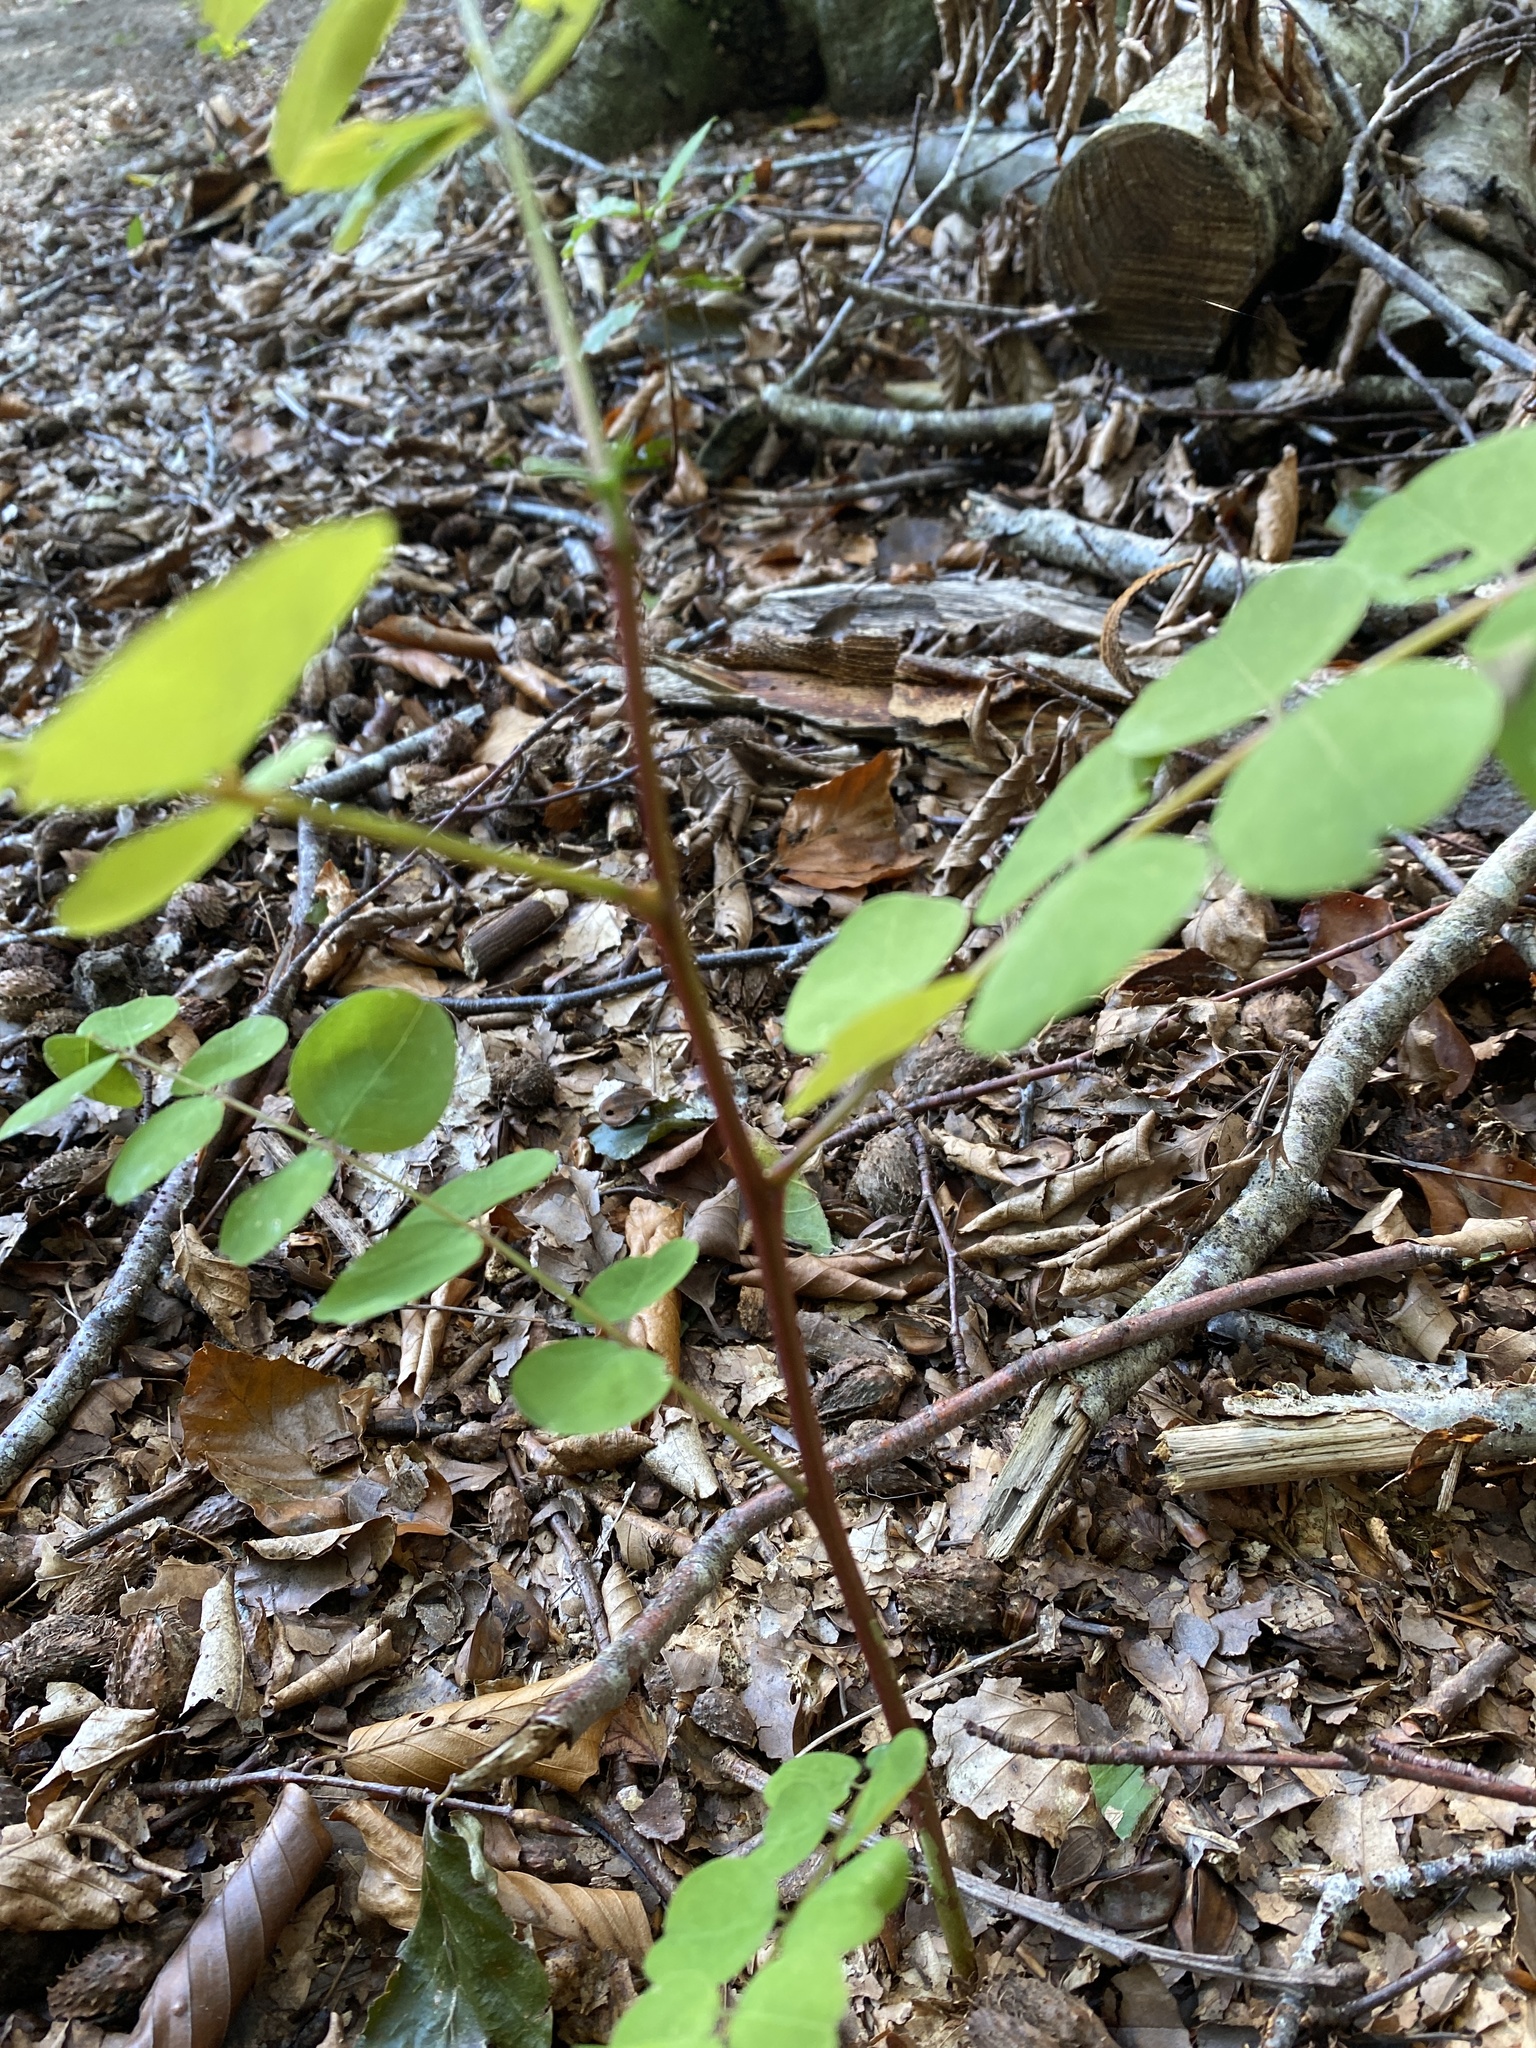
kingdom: Plantae
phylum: Tracheophyta
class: Magnoliopsida
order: Fabales
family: Fabaceae
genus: Robinia
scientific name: Robinia pseudoacacia
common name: Black locust
